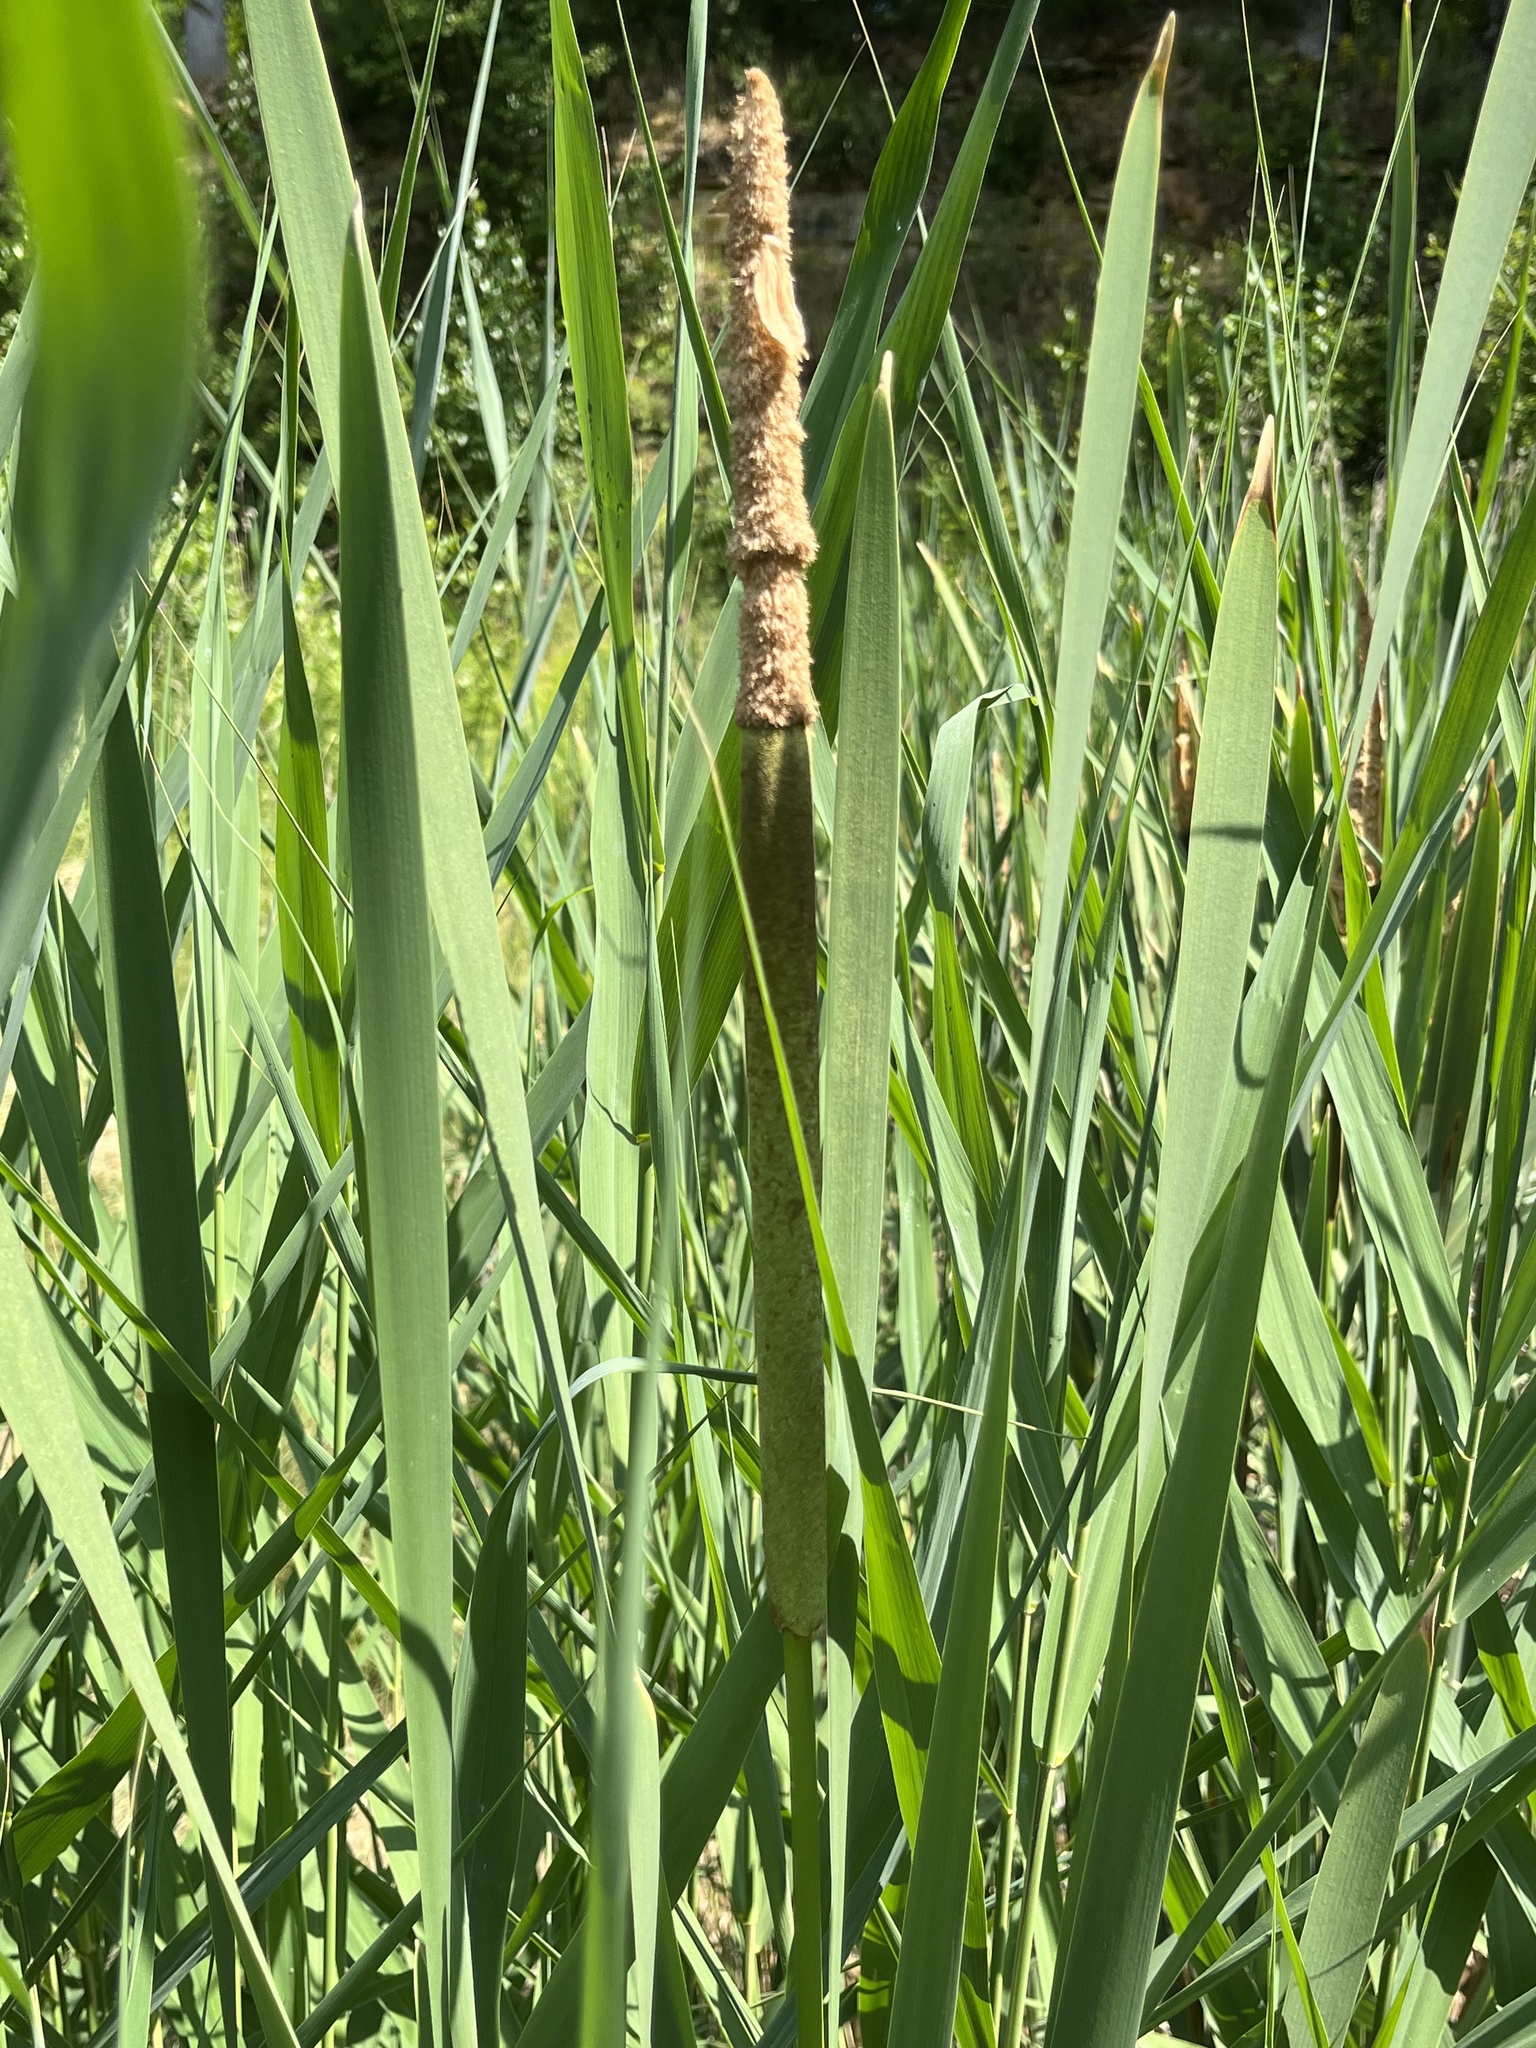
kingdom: Plantae
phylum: Tracheophyta
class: Liliopsida
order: Poales
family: Typhaceae
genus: Typha
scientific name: Typha latifolia
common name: Broadleaf cattail
